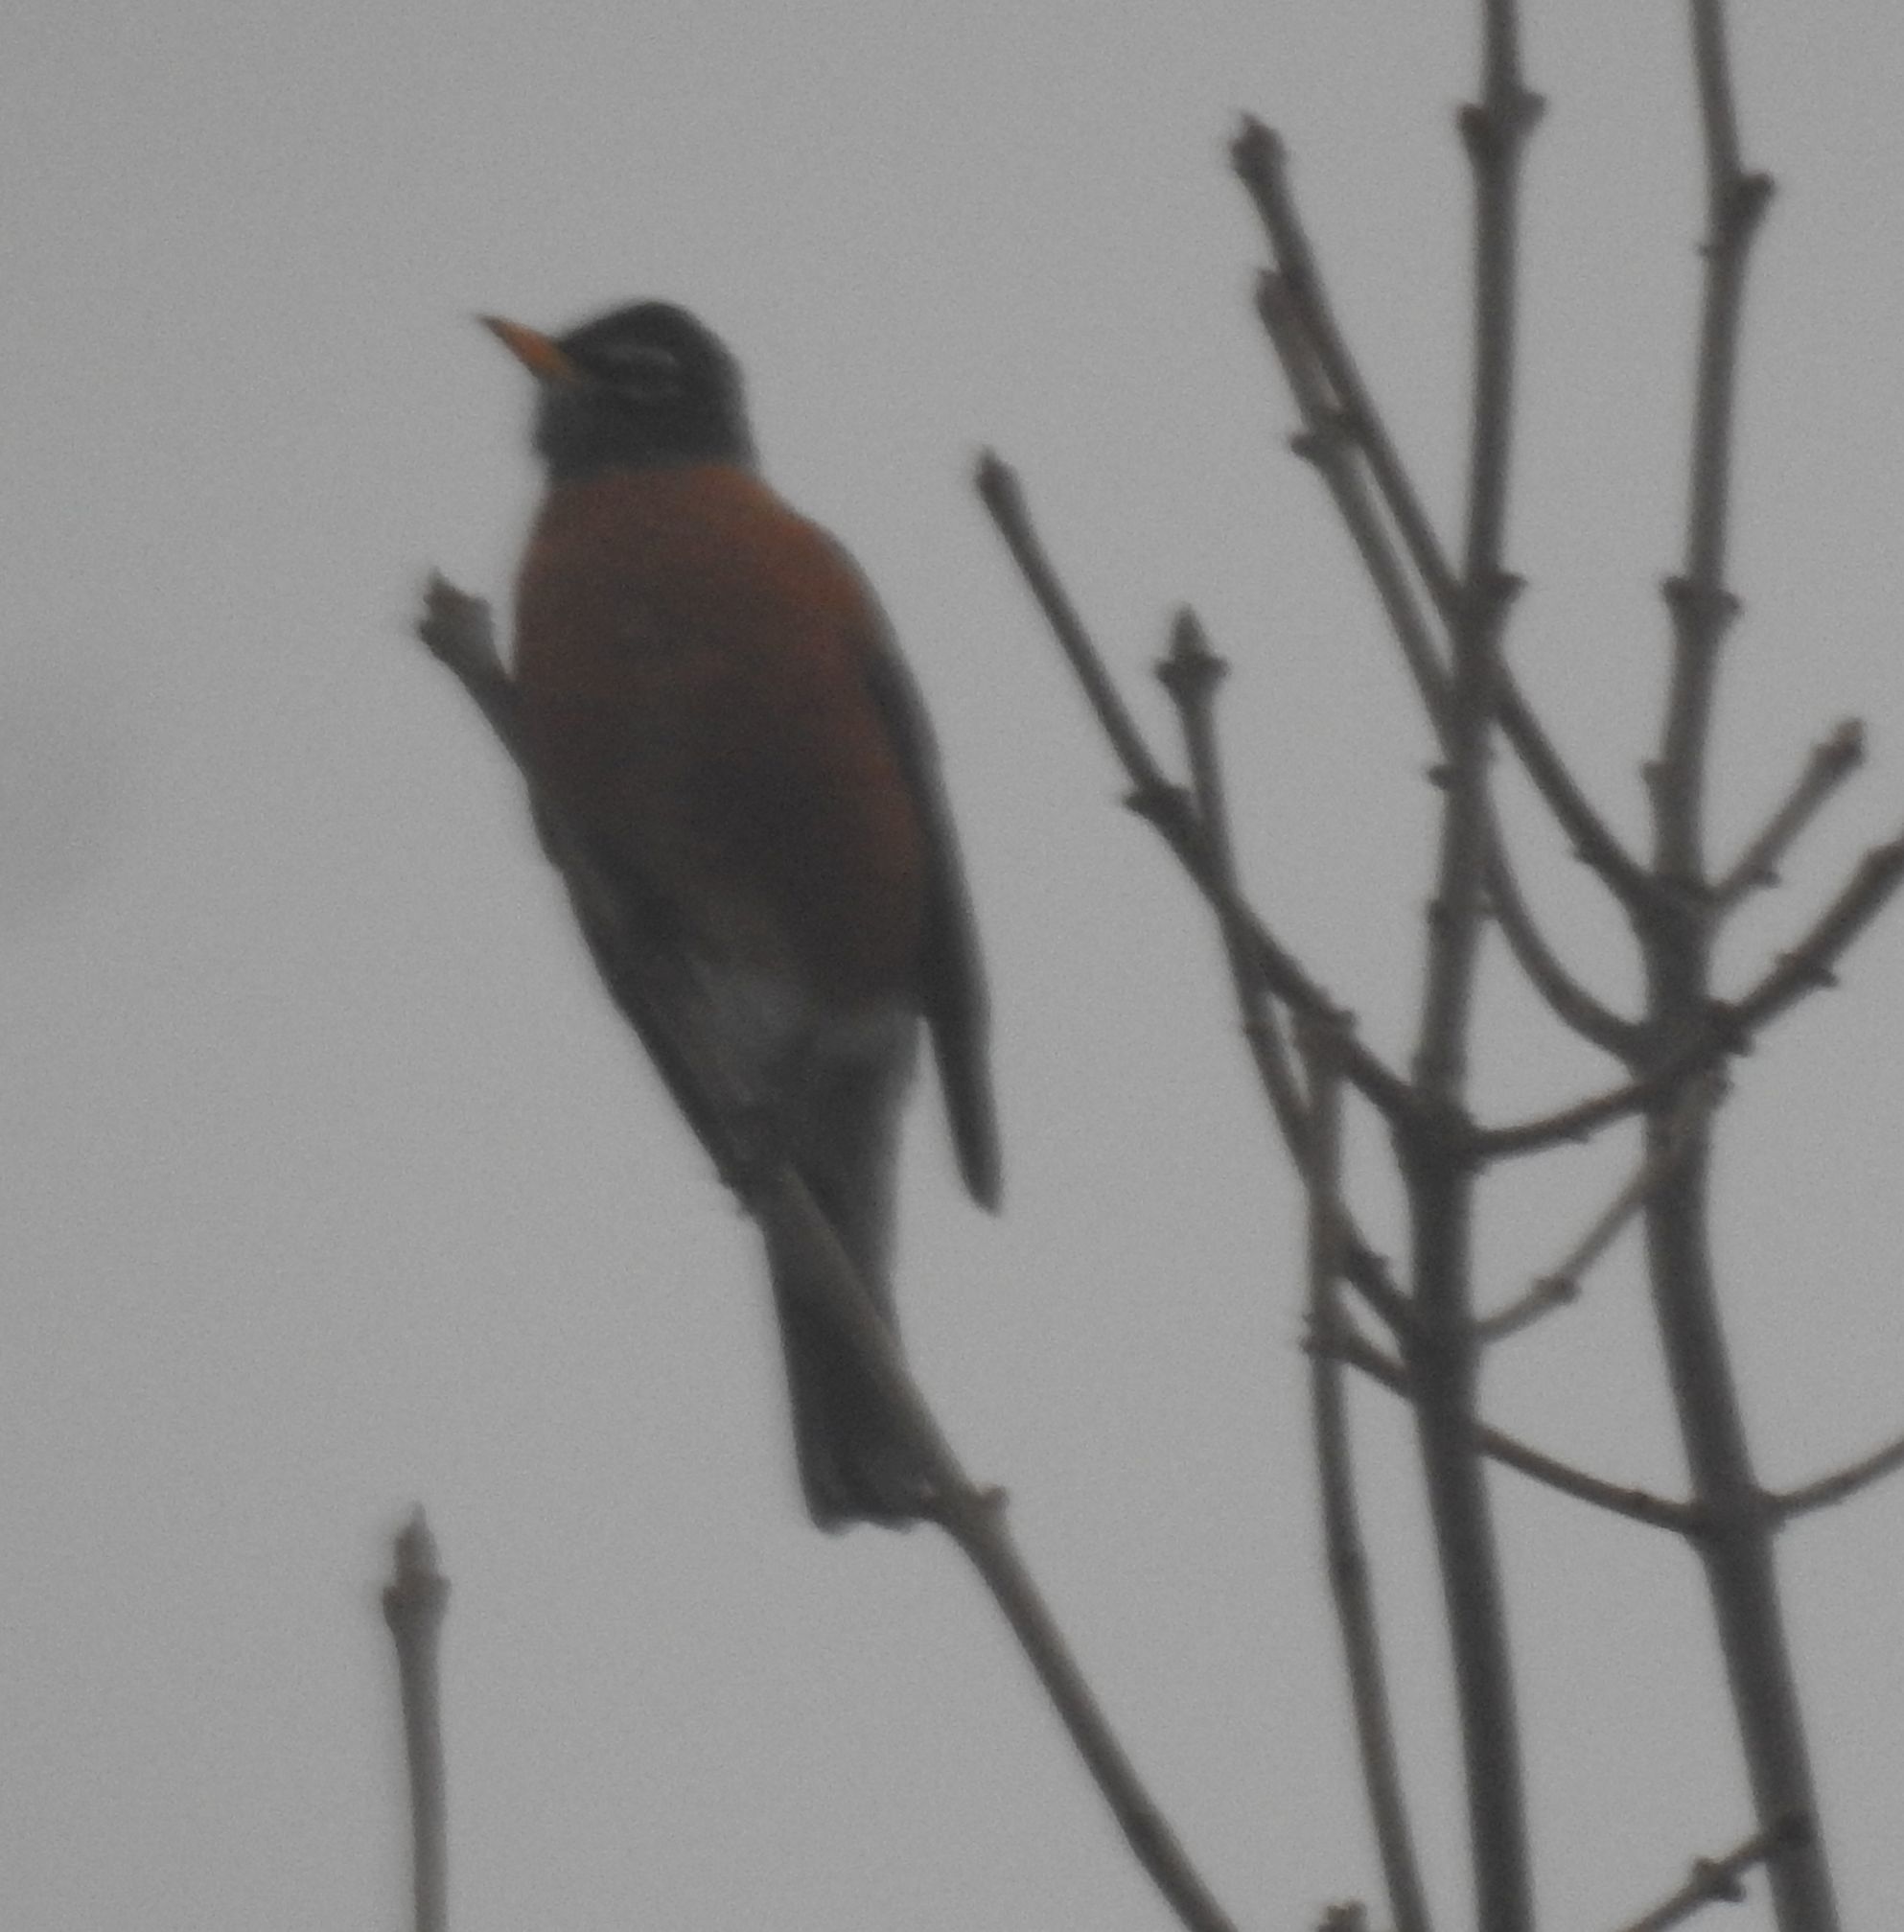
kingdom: Animalia
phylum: Chordata
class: Aves
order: Passeriformes
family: Turdidae
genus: Turdus
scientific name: Turdus migratorius
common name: American robin
